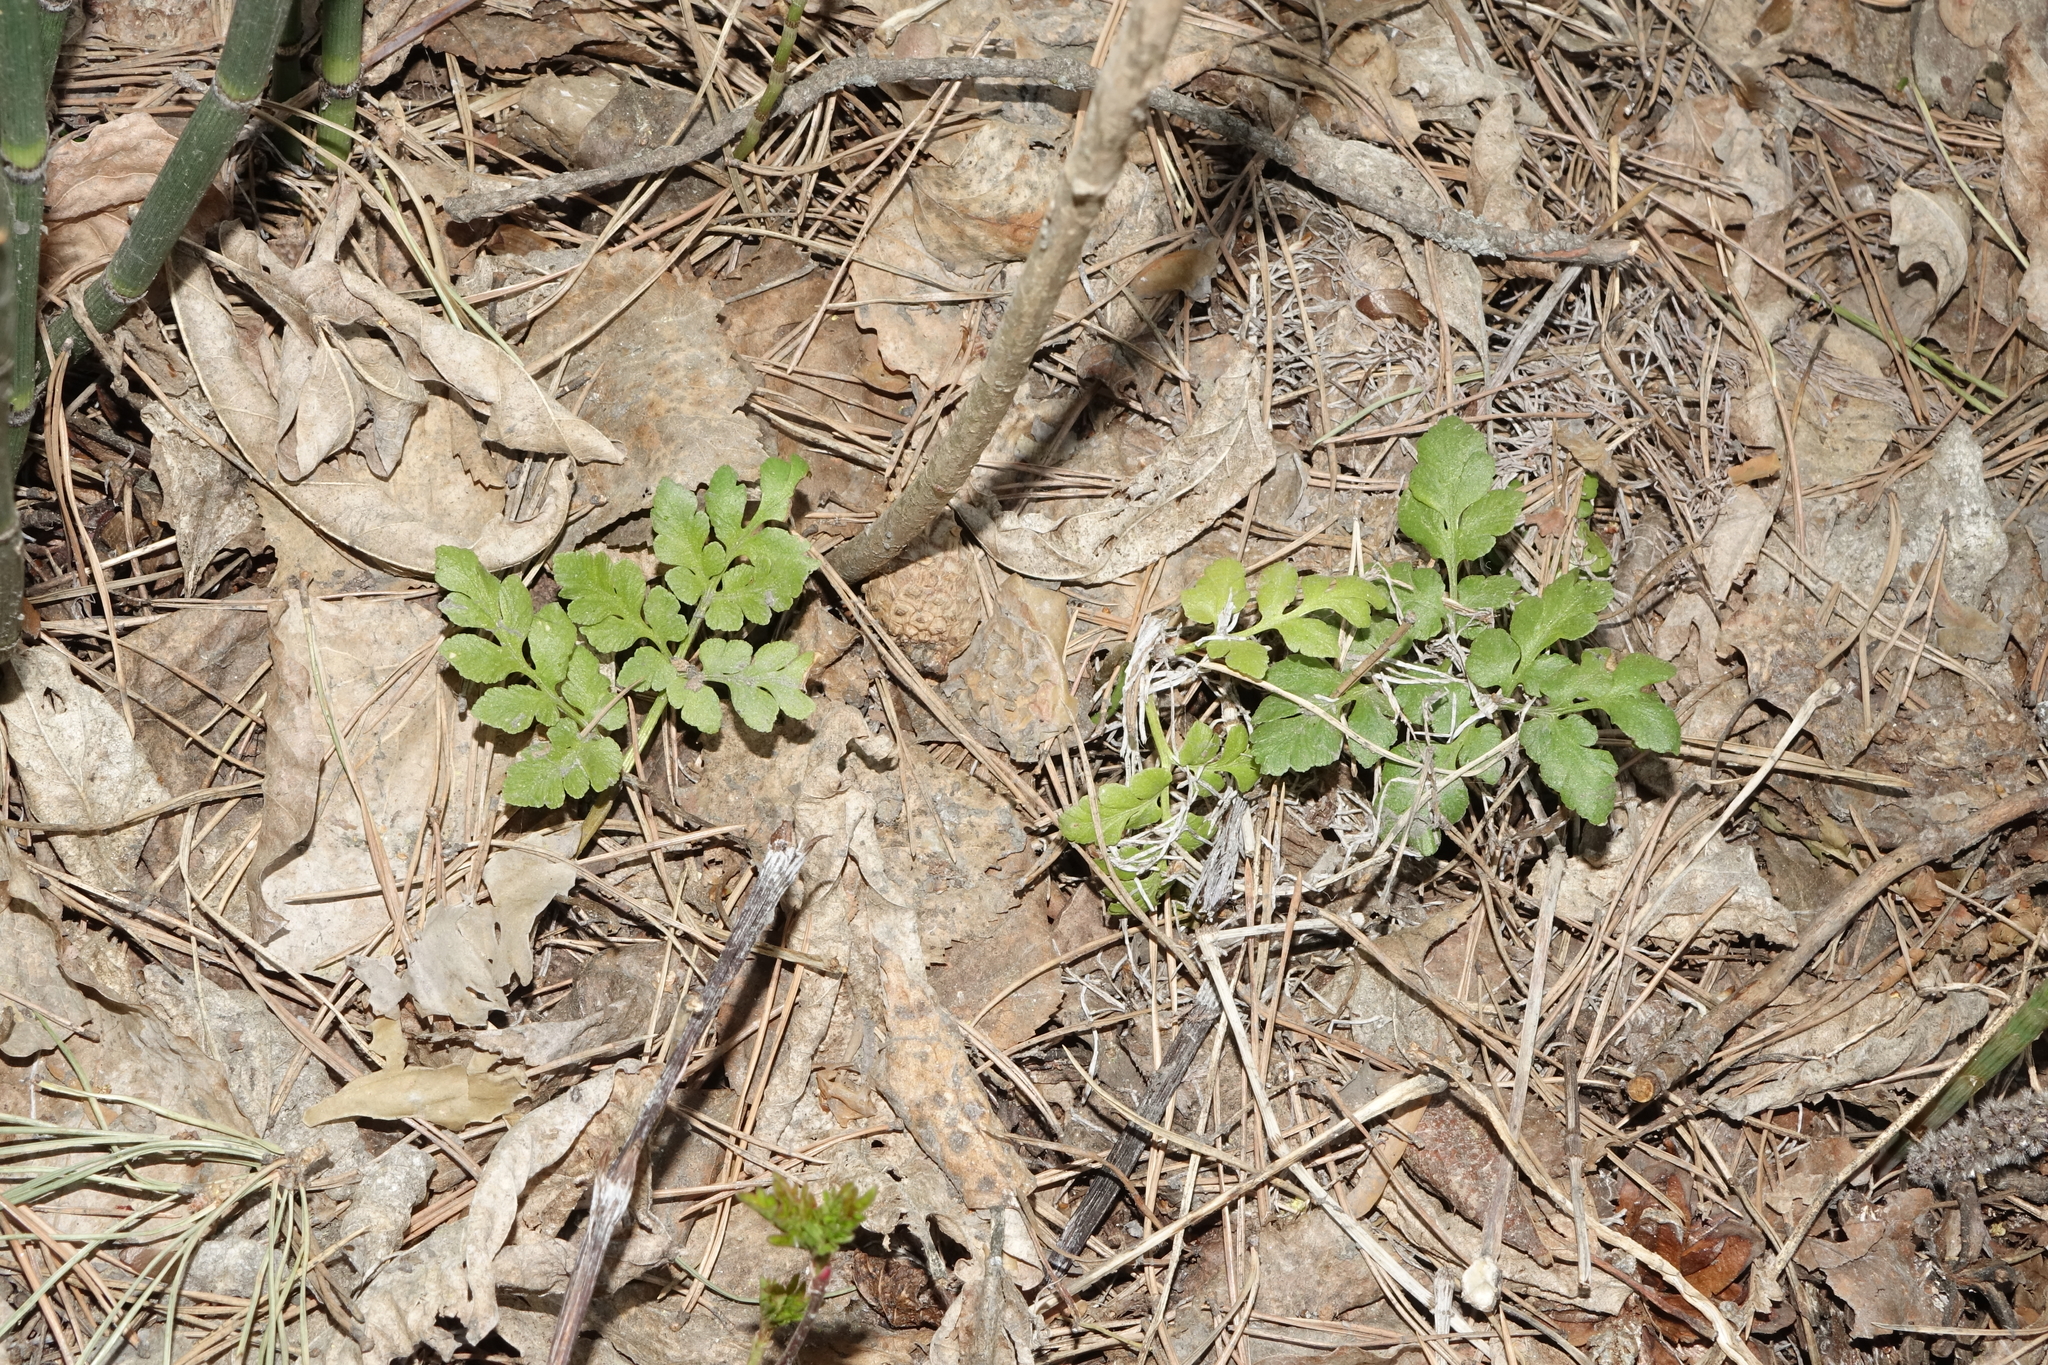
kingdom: Plantae
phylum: Tracheophyta
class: Polypodiopsida
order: Ophioglossales
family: Ophioglossaceae
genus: Sceptridium
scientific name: Sceptridium multifidum
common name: Leathery grape fern
